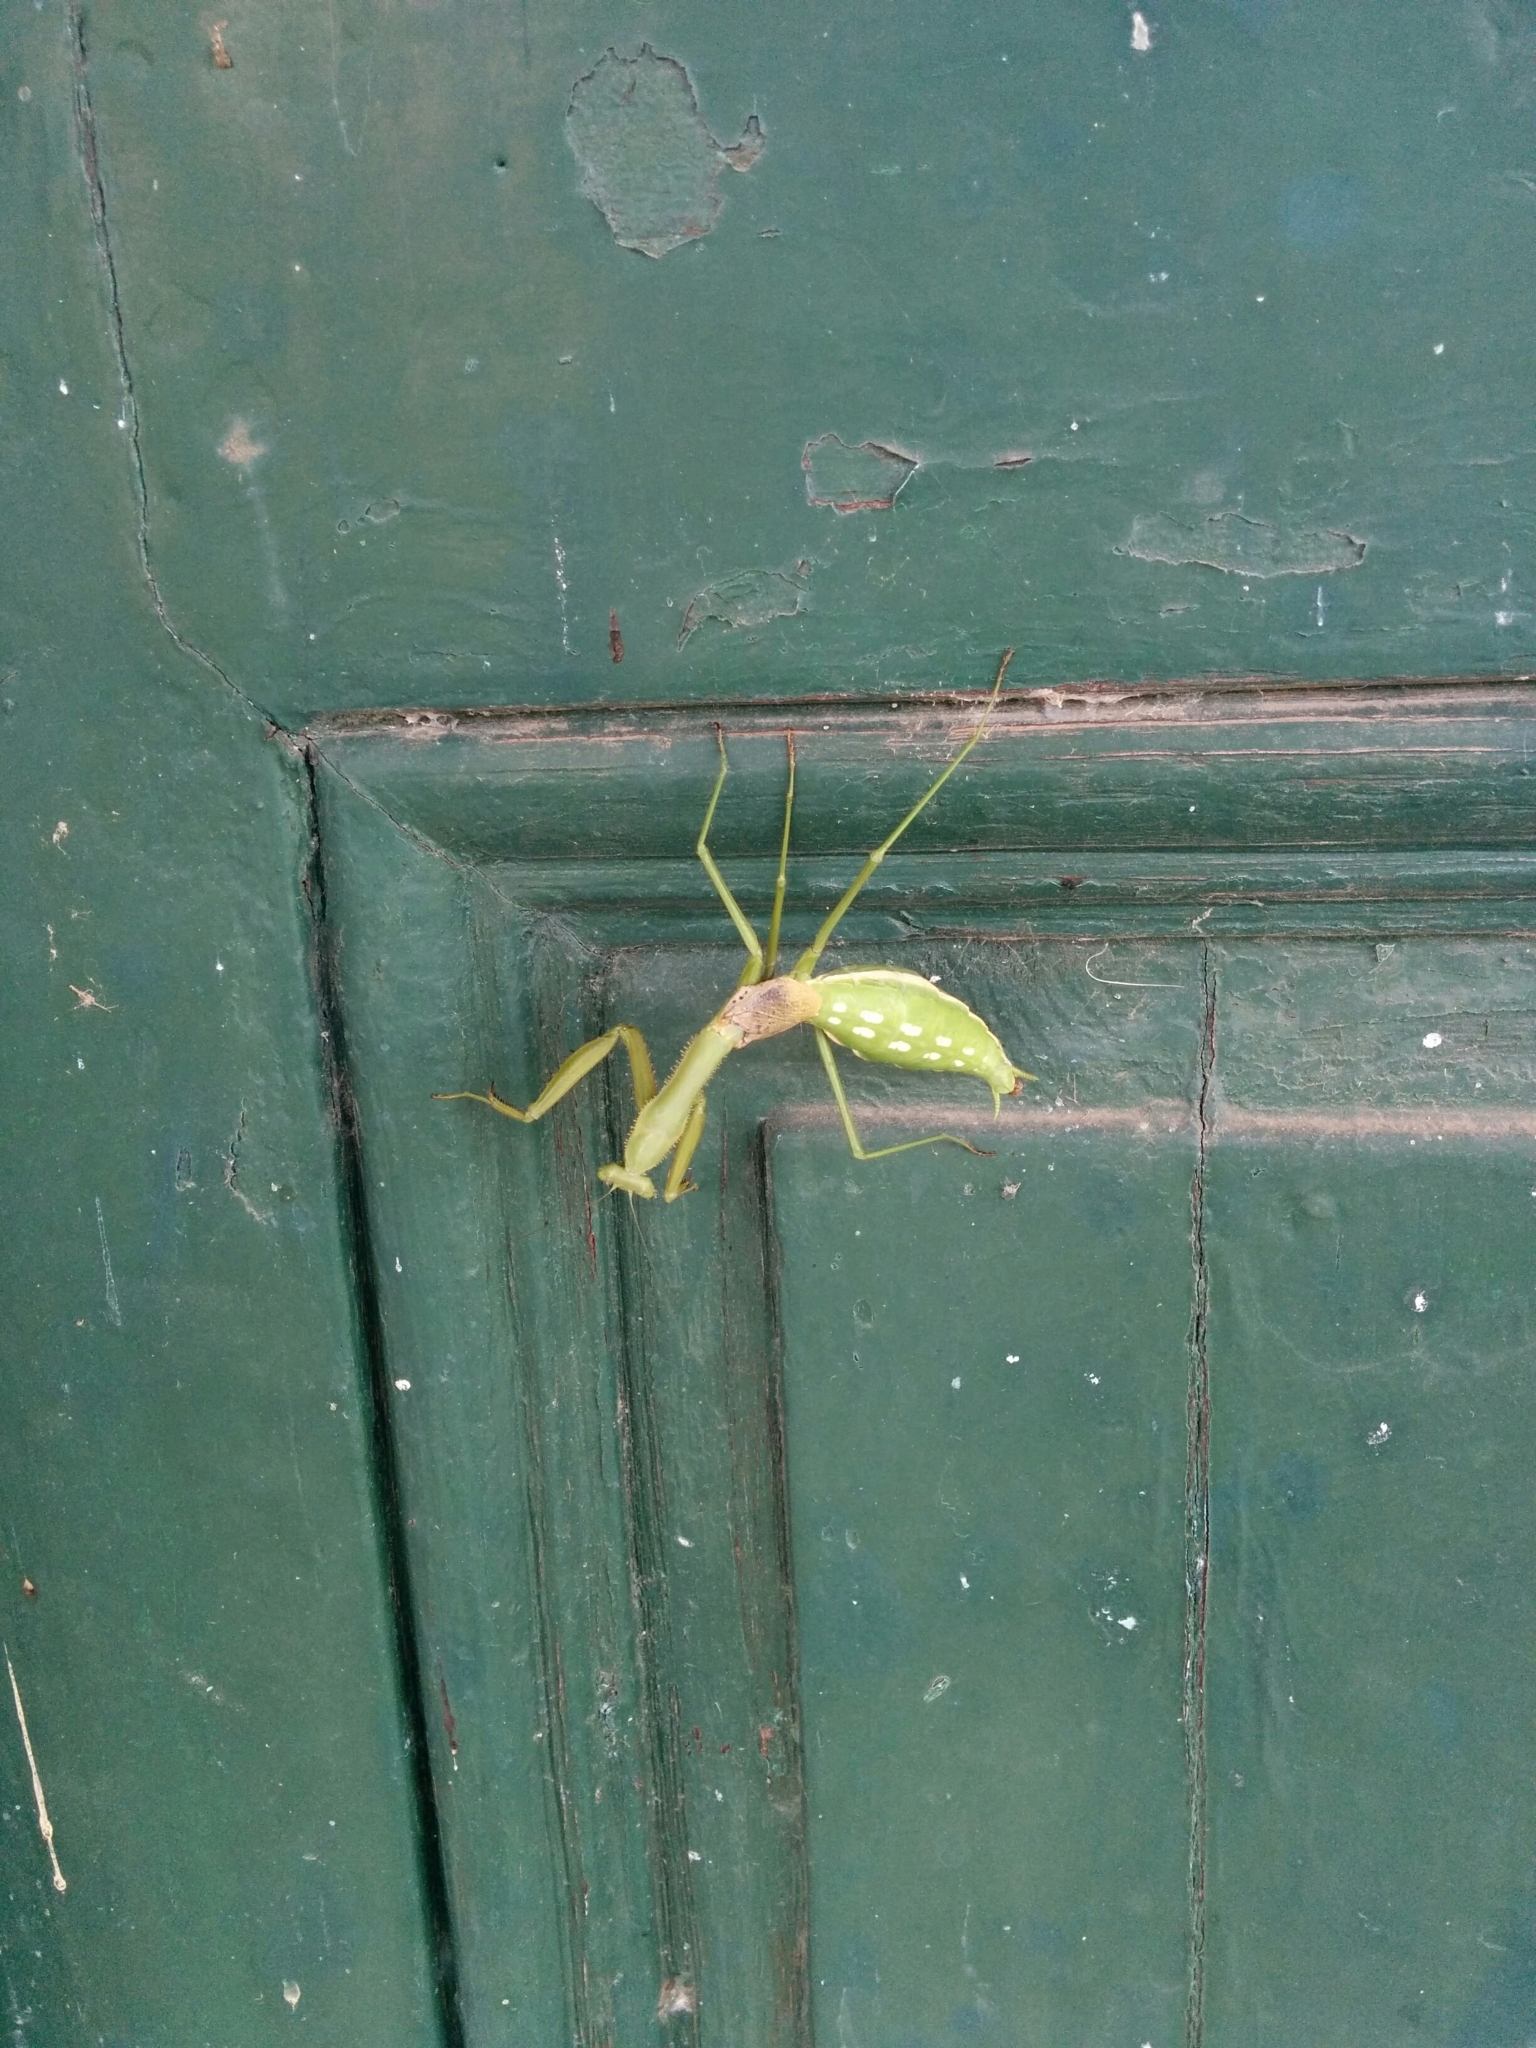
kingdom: Animalia
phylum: Arthropoda
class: Insecta
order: Mantodea
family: Coptopterygidae
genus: Coptopteryx
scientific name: Coptopteryx gayi
